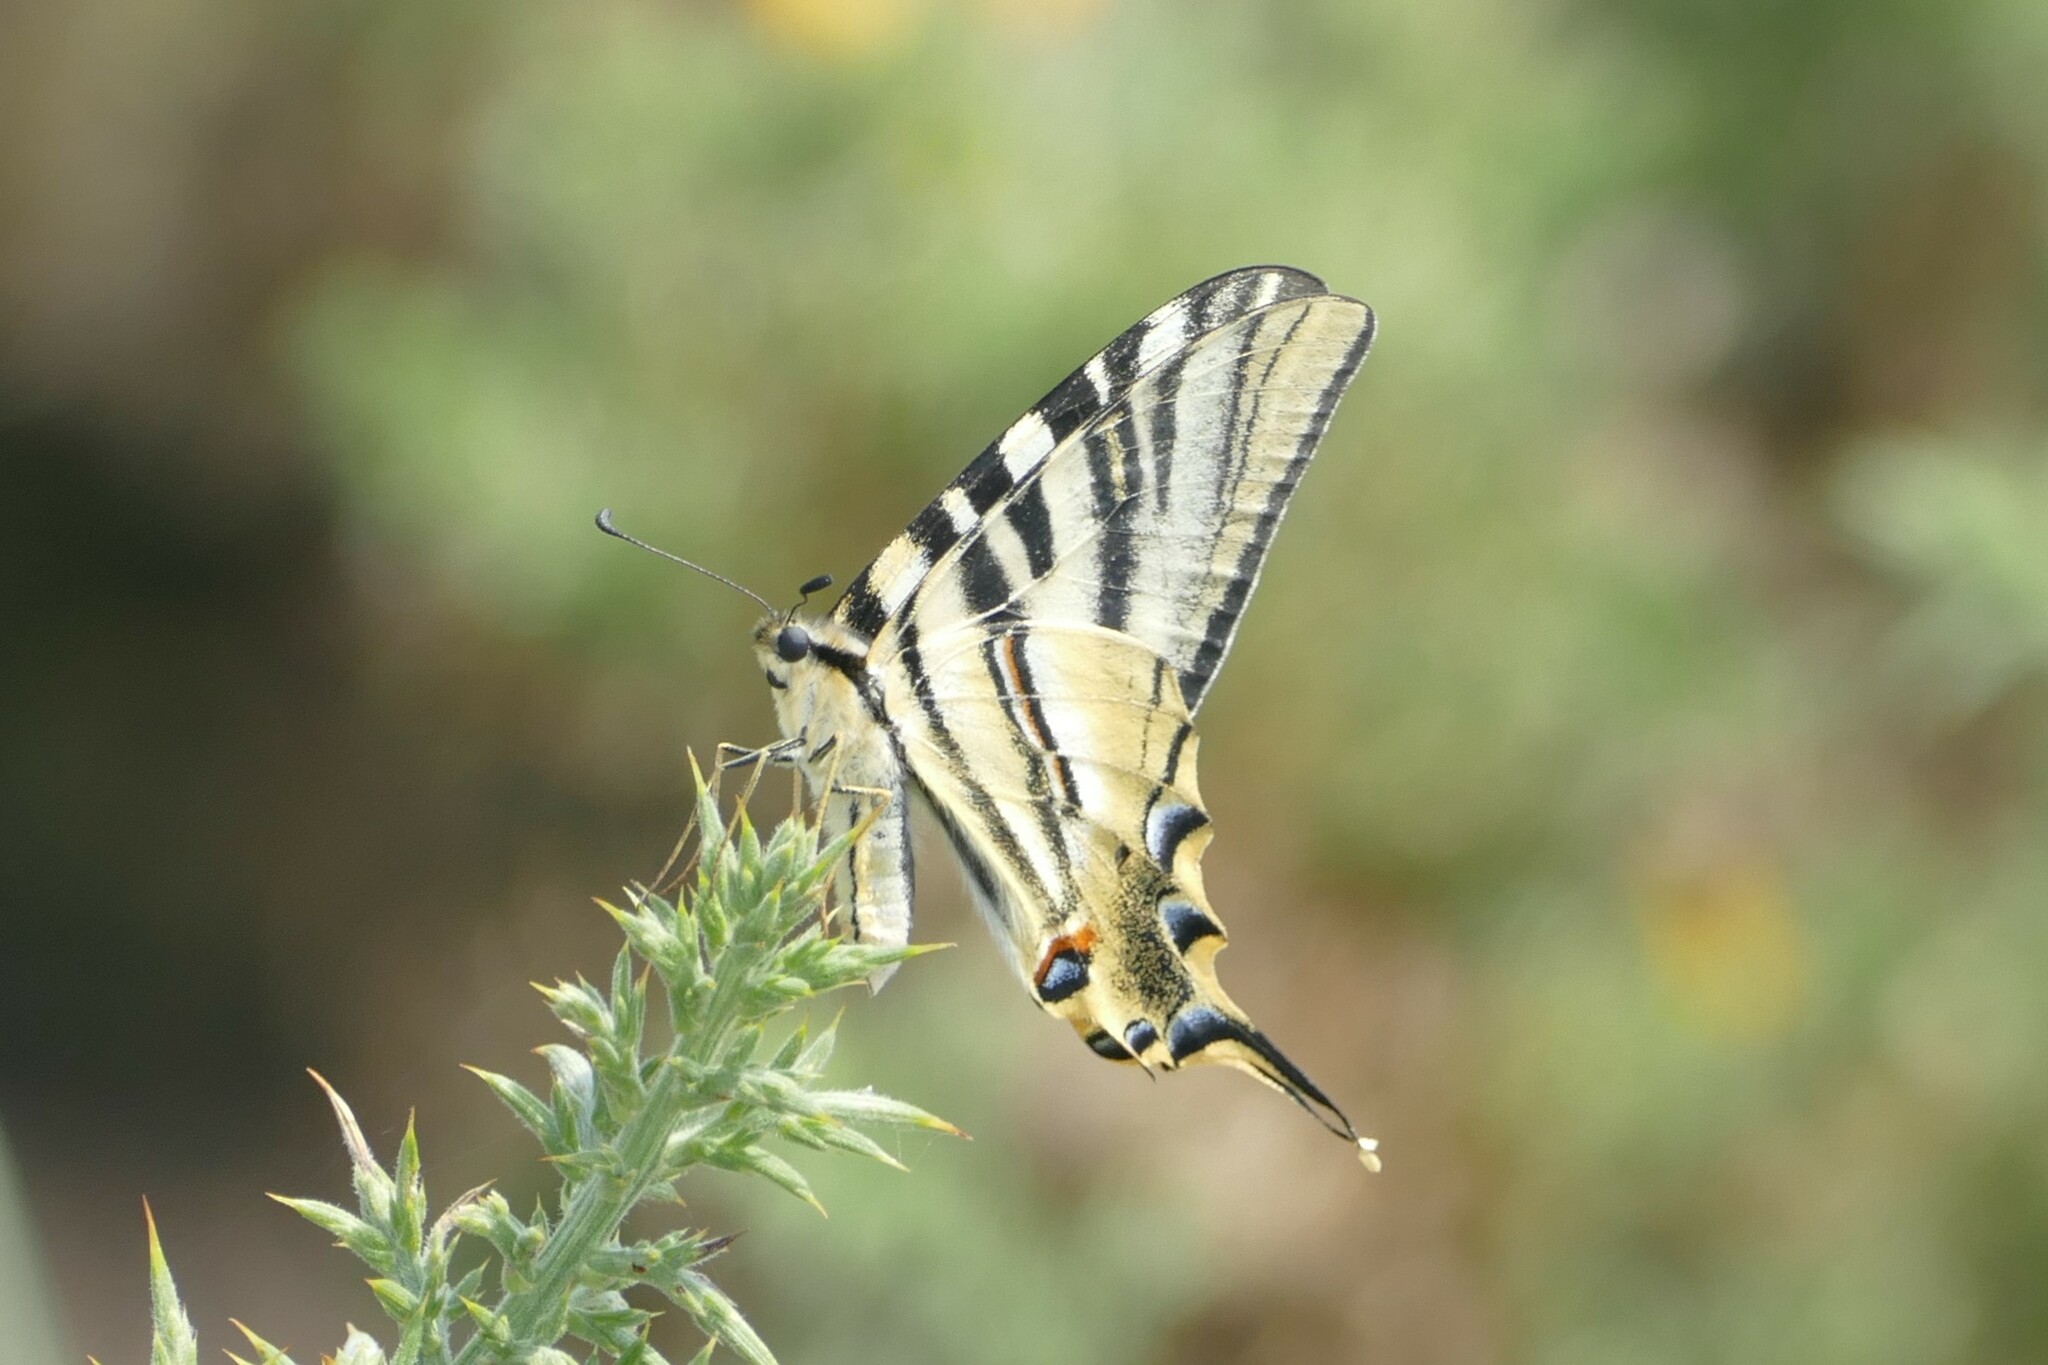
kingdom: Animalia
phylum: Arthropoda
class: Insecta
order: Lepidoptera
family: Papilionidae
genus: Iphiclides
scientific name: Iphiclides feisthamelii
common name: Iberian scarce swallowtail
